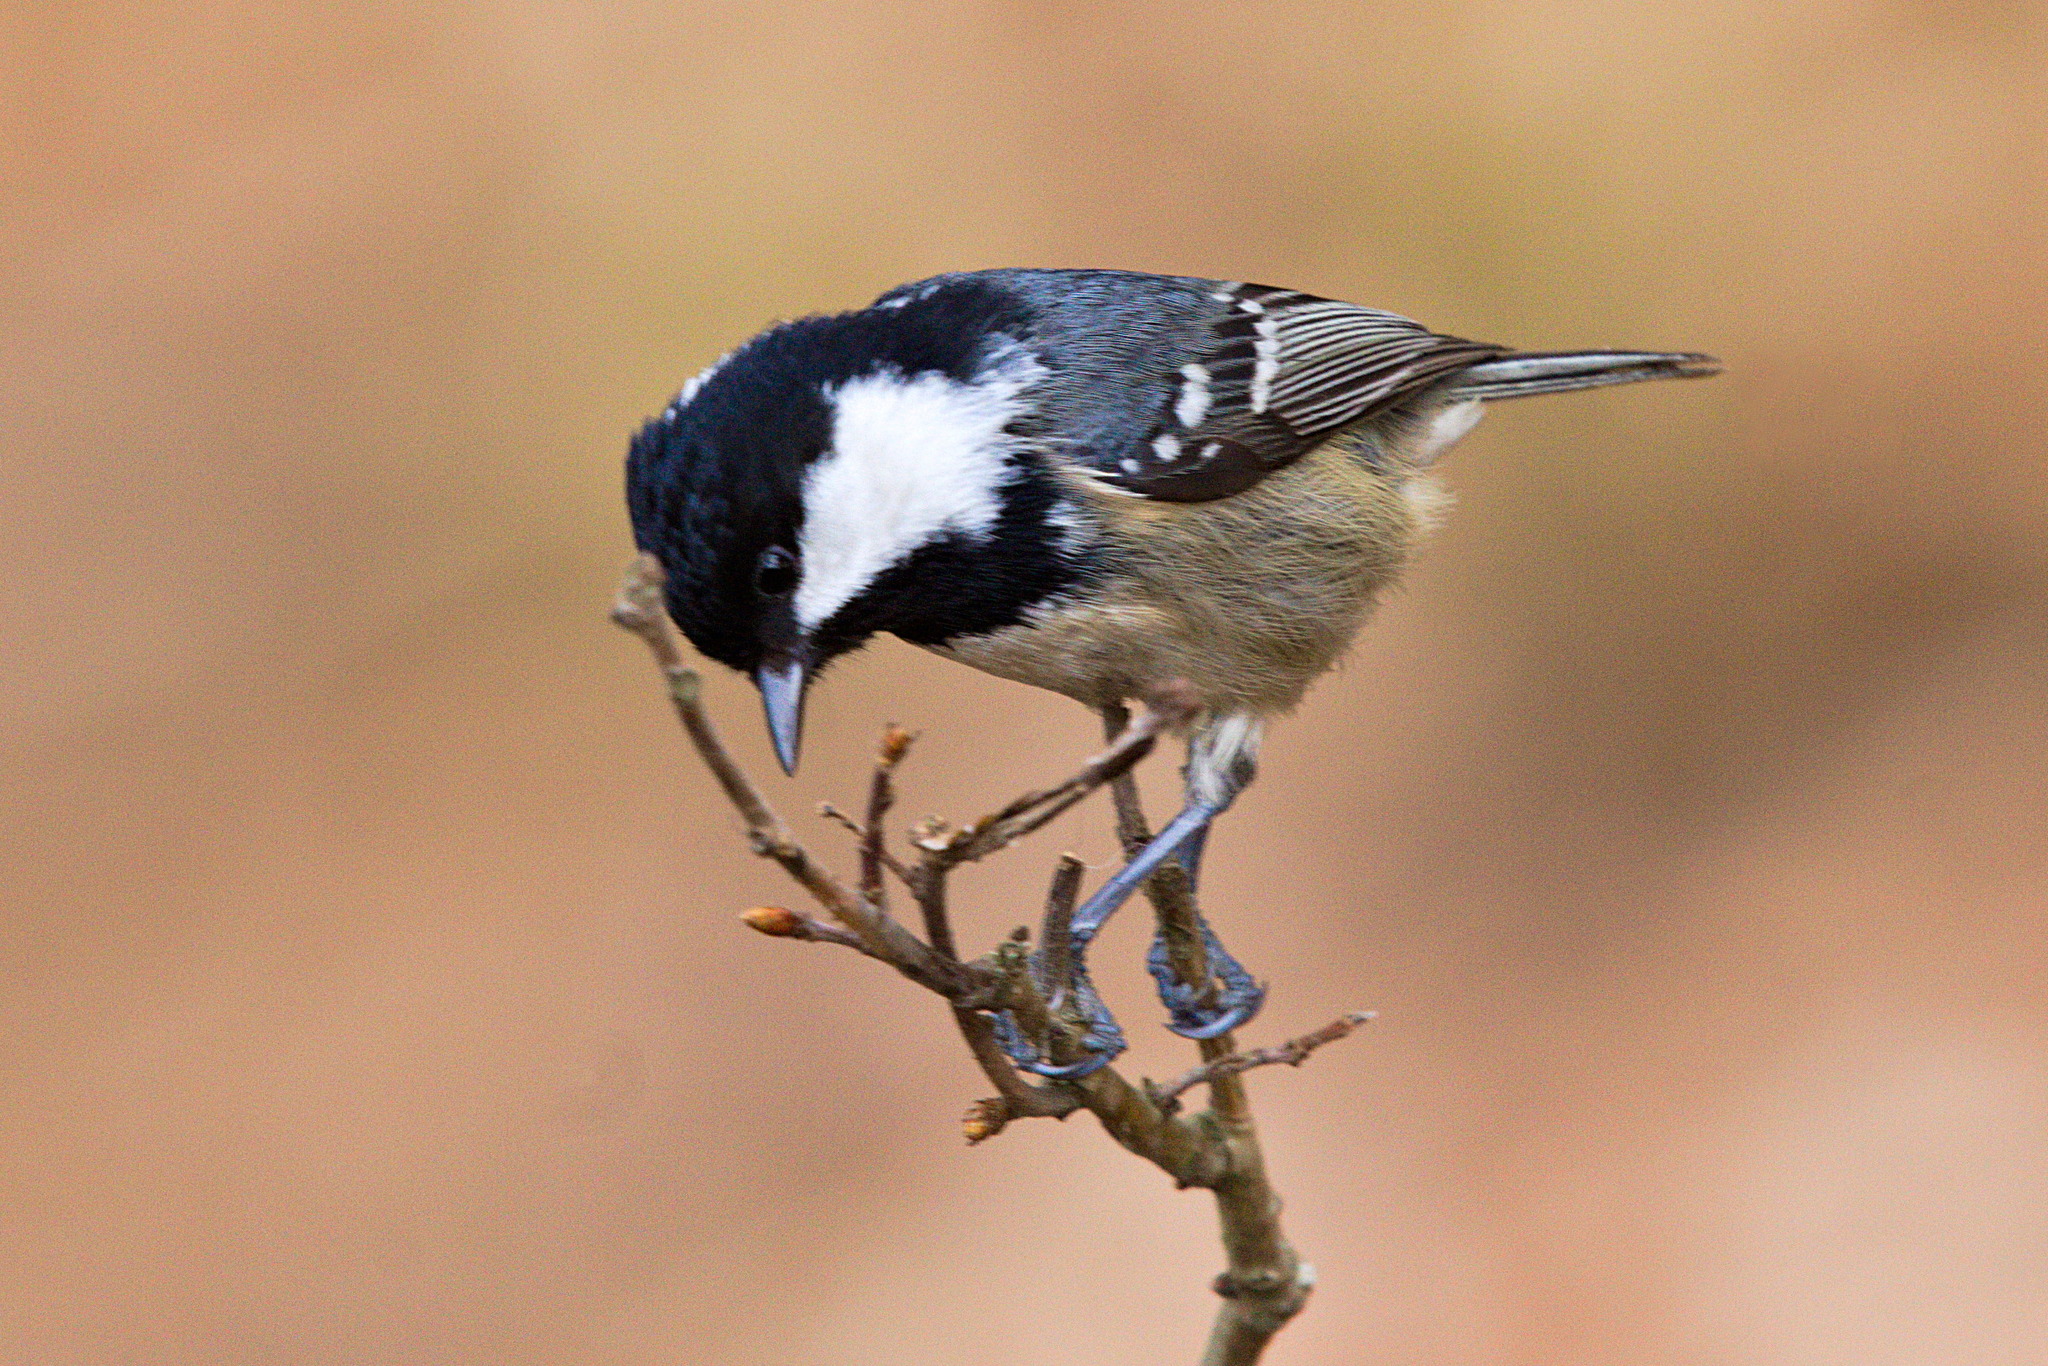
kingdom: Animalia
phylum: Chordata
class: Aves
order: Passeriformes
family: Paridae
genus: Periparus
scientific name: Periparus ater
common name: Coal tit
